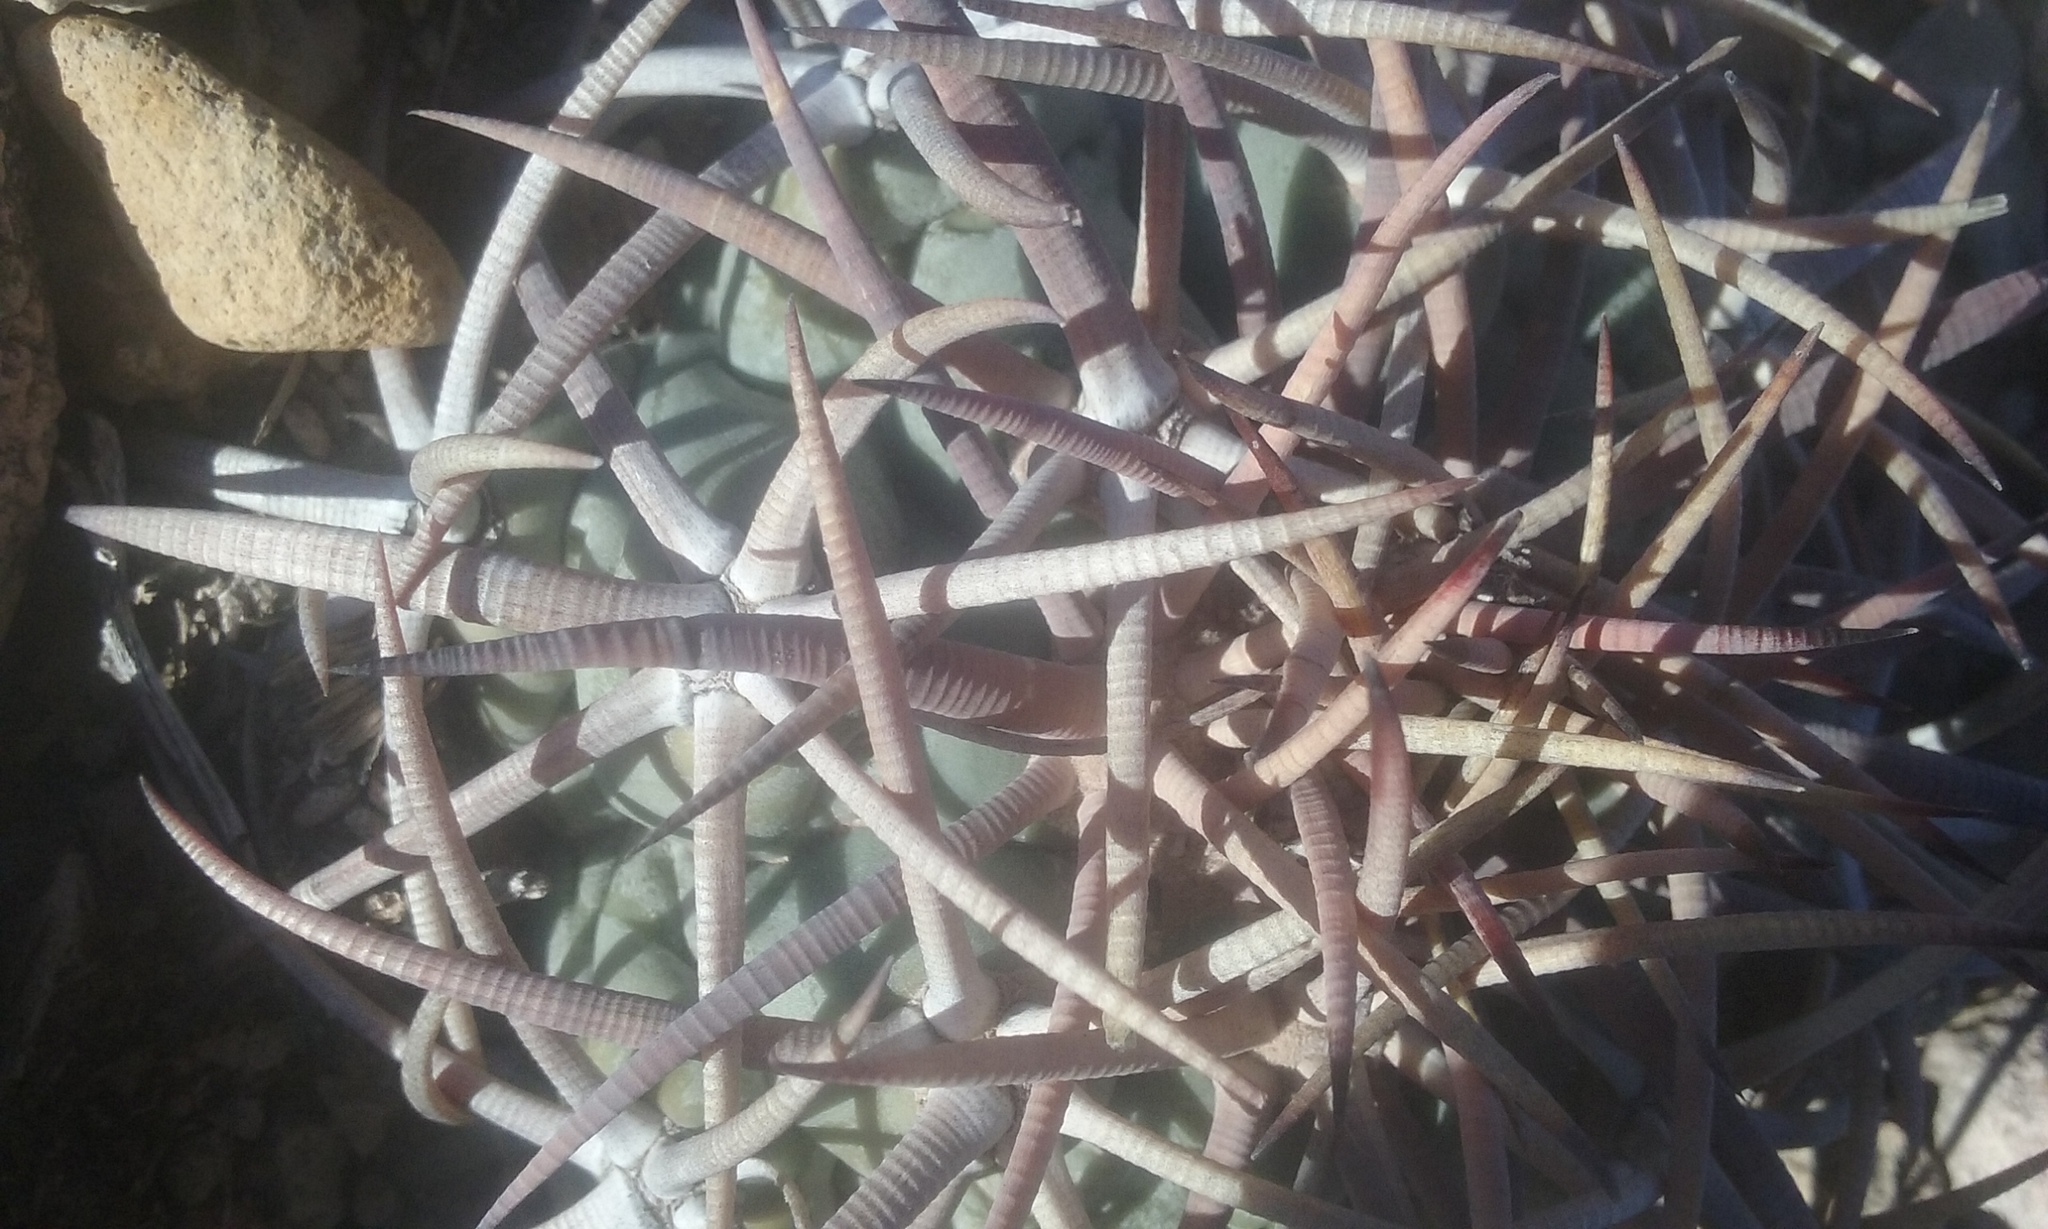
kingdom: Plantae
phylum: Tracheophyta
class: Magnoliopsida
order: Caryophyllales
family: Cactaceae
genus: Echinocactus
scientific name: Echinocactus horizonthalonius
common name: Devilshead
